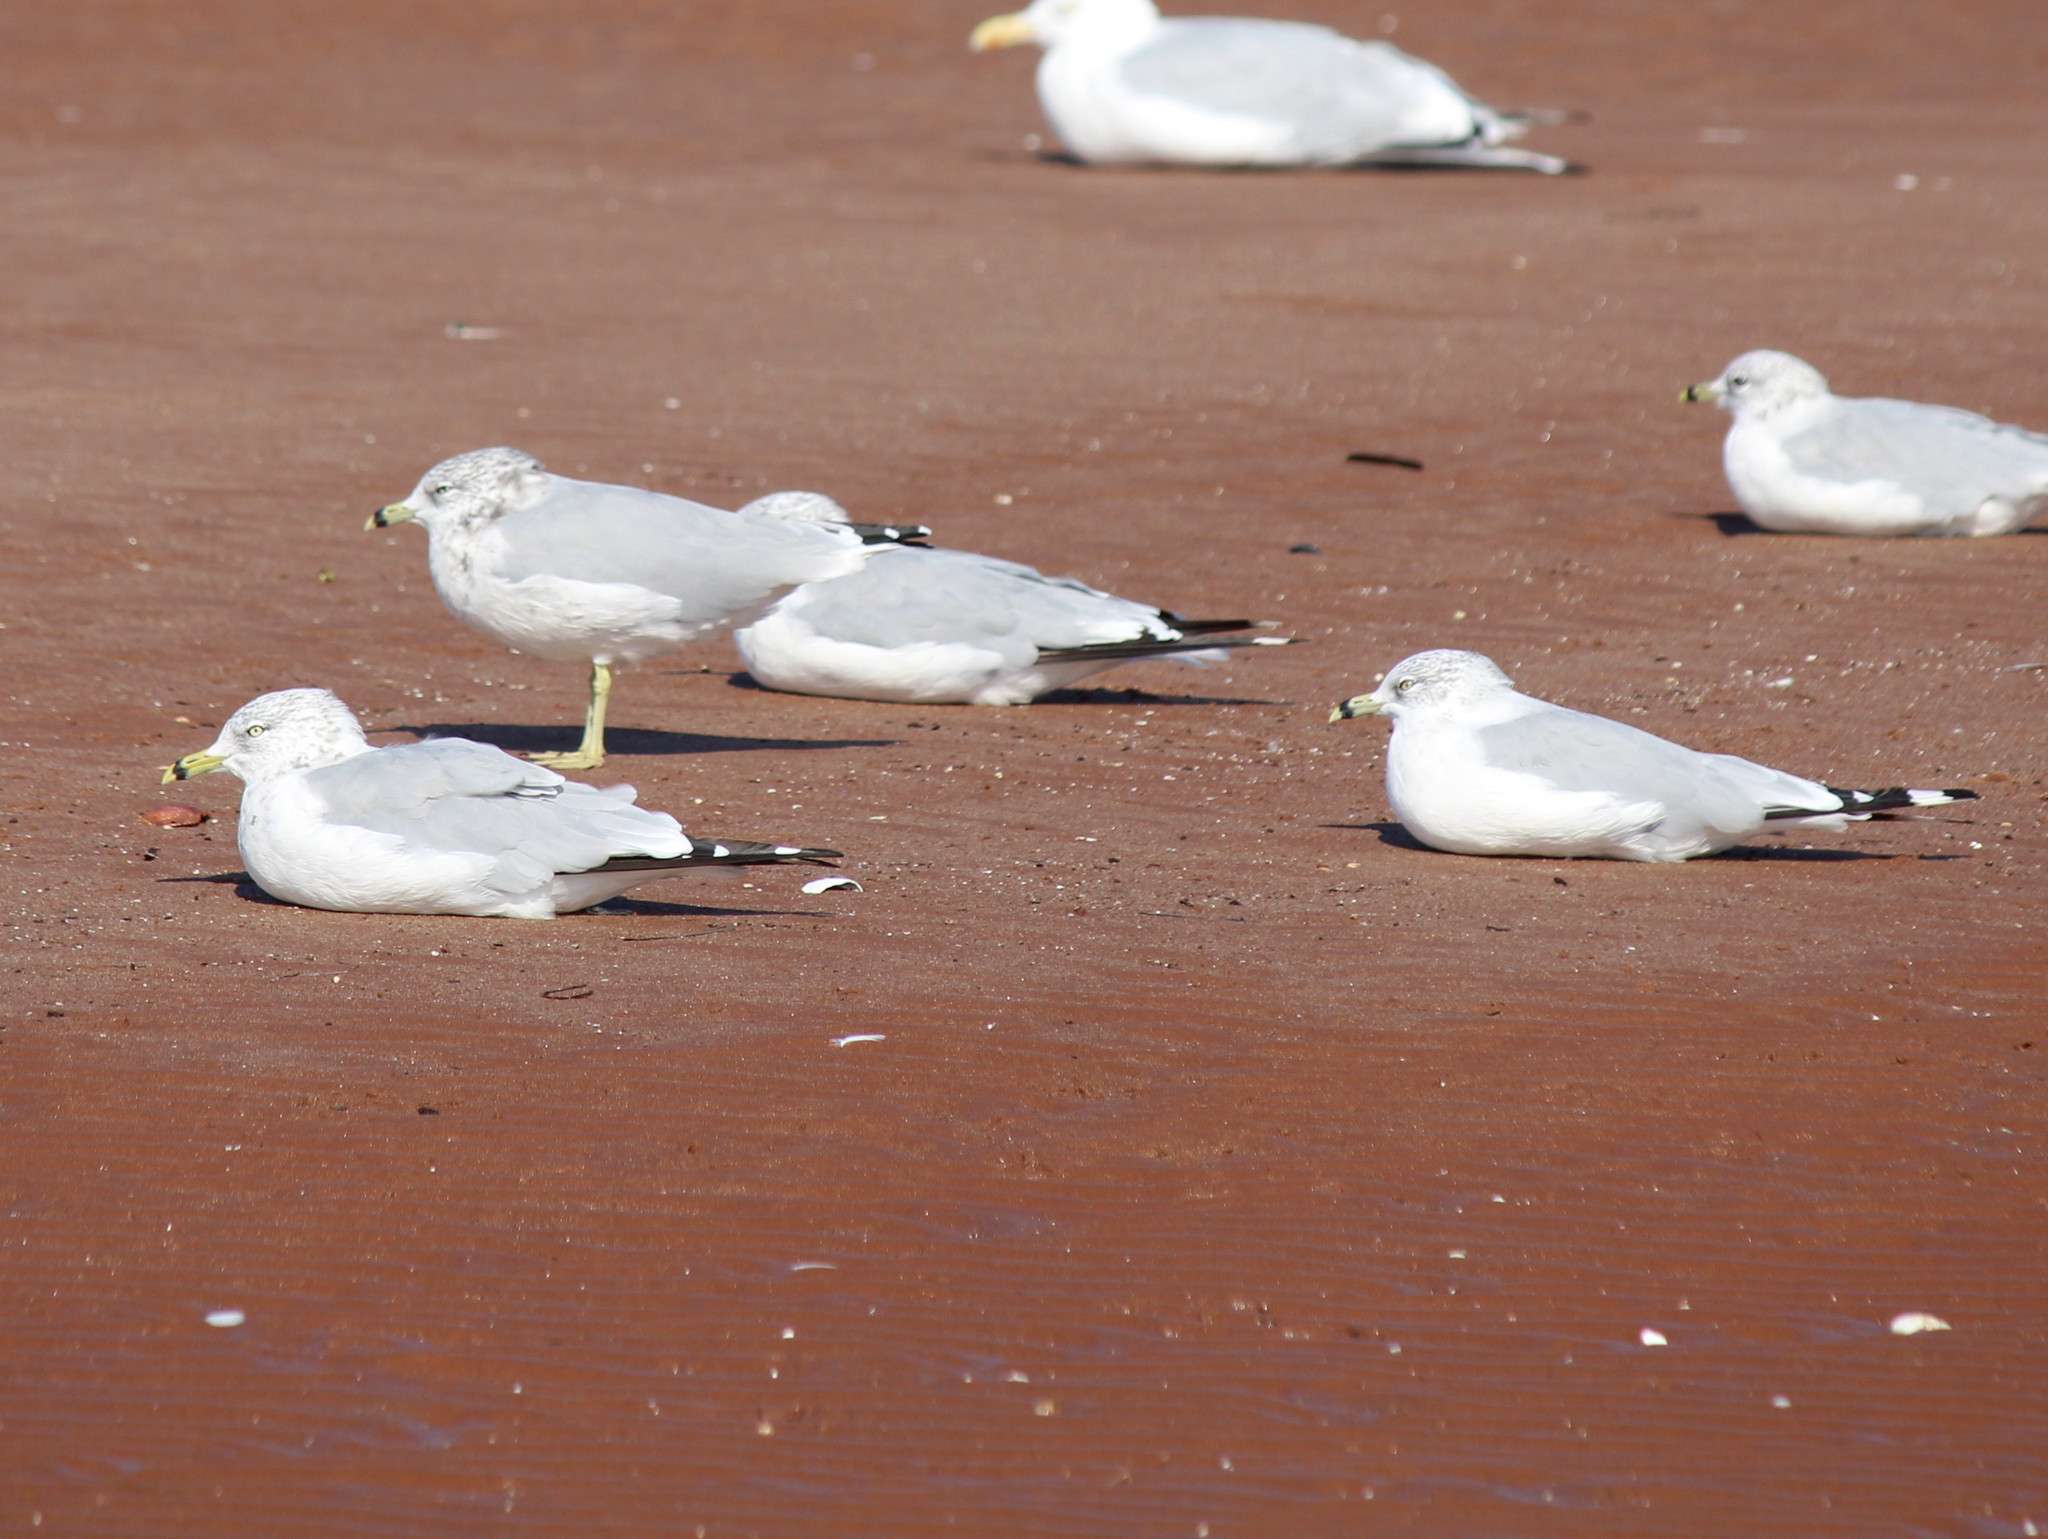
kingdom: Animalia
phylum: Chordata
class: Aves
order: Charadriiformes
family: Laridae
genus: Larus
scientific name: Larus delawarensis
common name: Ring-billed gull
